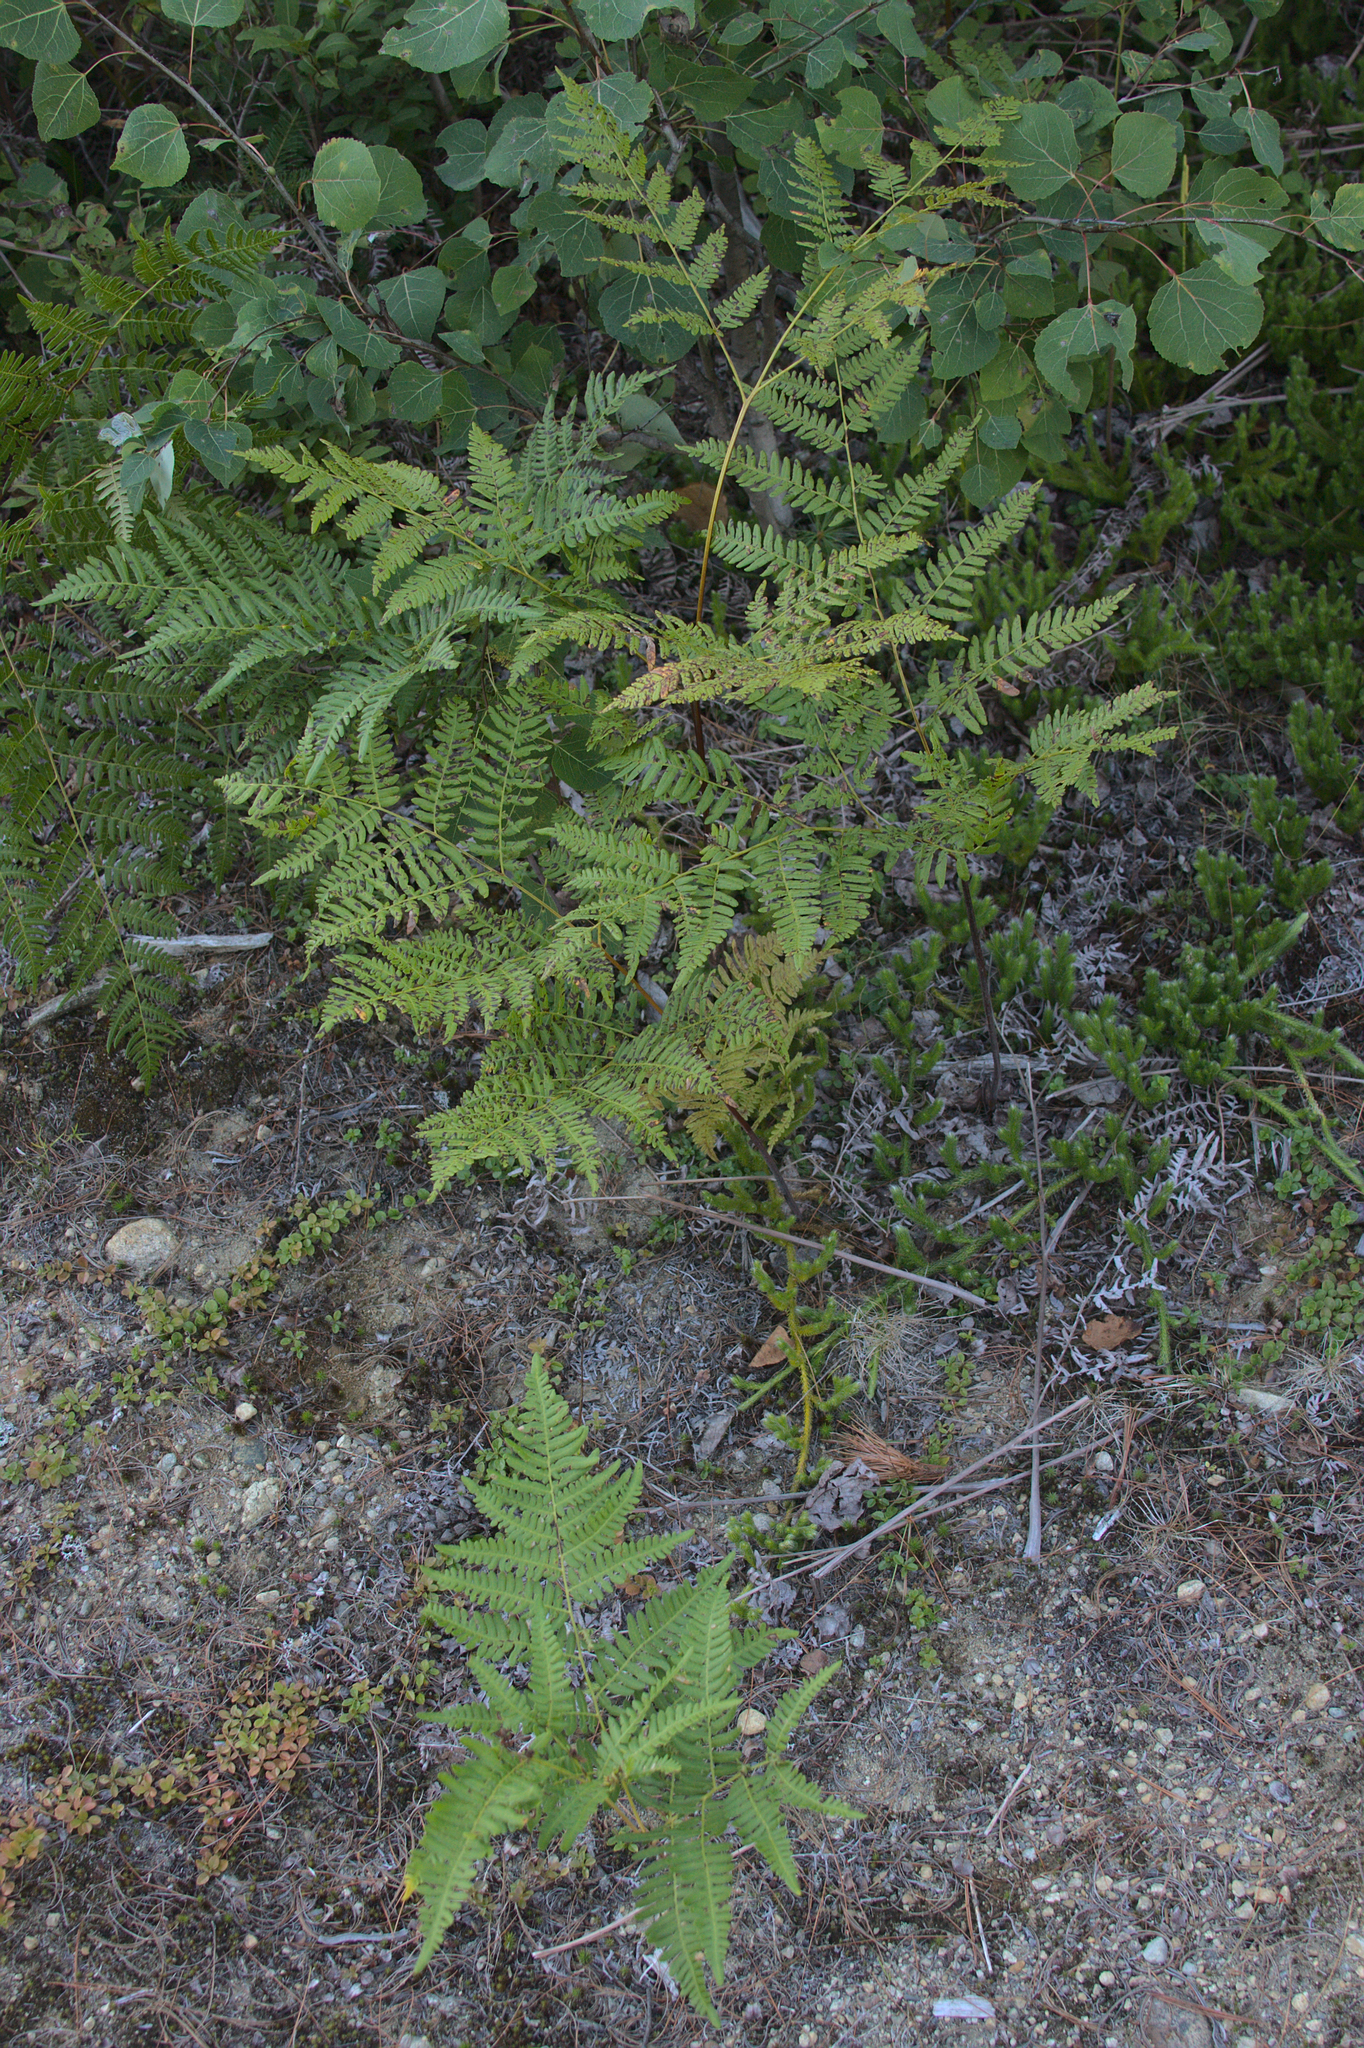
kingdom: Plantae
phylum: Tracheophyta
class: Polypodiopsida
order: Polypodiales
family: Dennstaedtiaceae
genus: Pteridium
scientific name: Pteridium aquilinum
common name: Bracken
